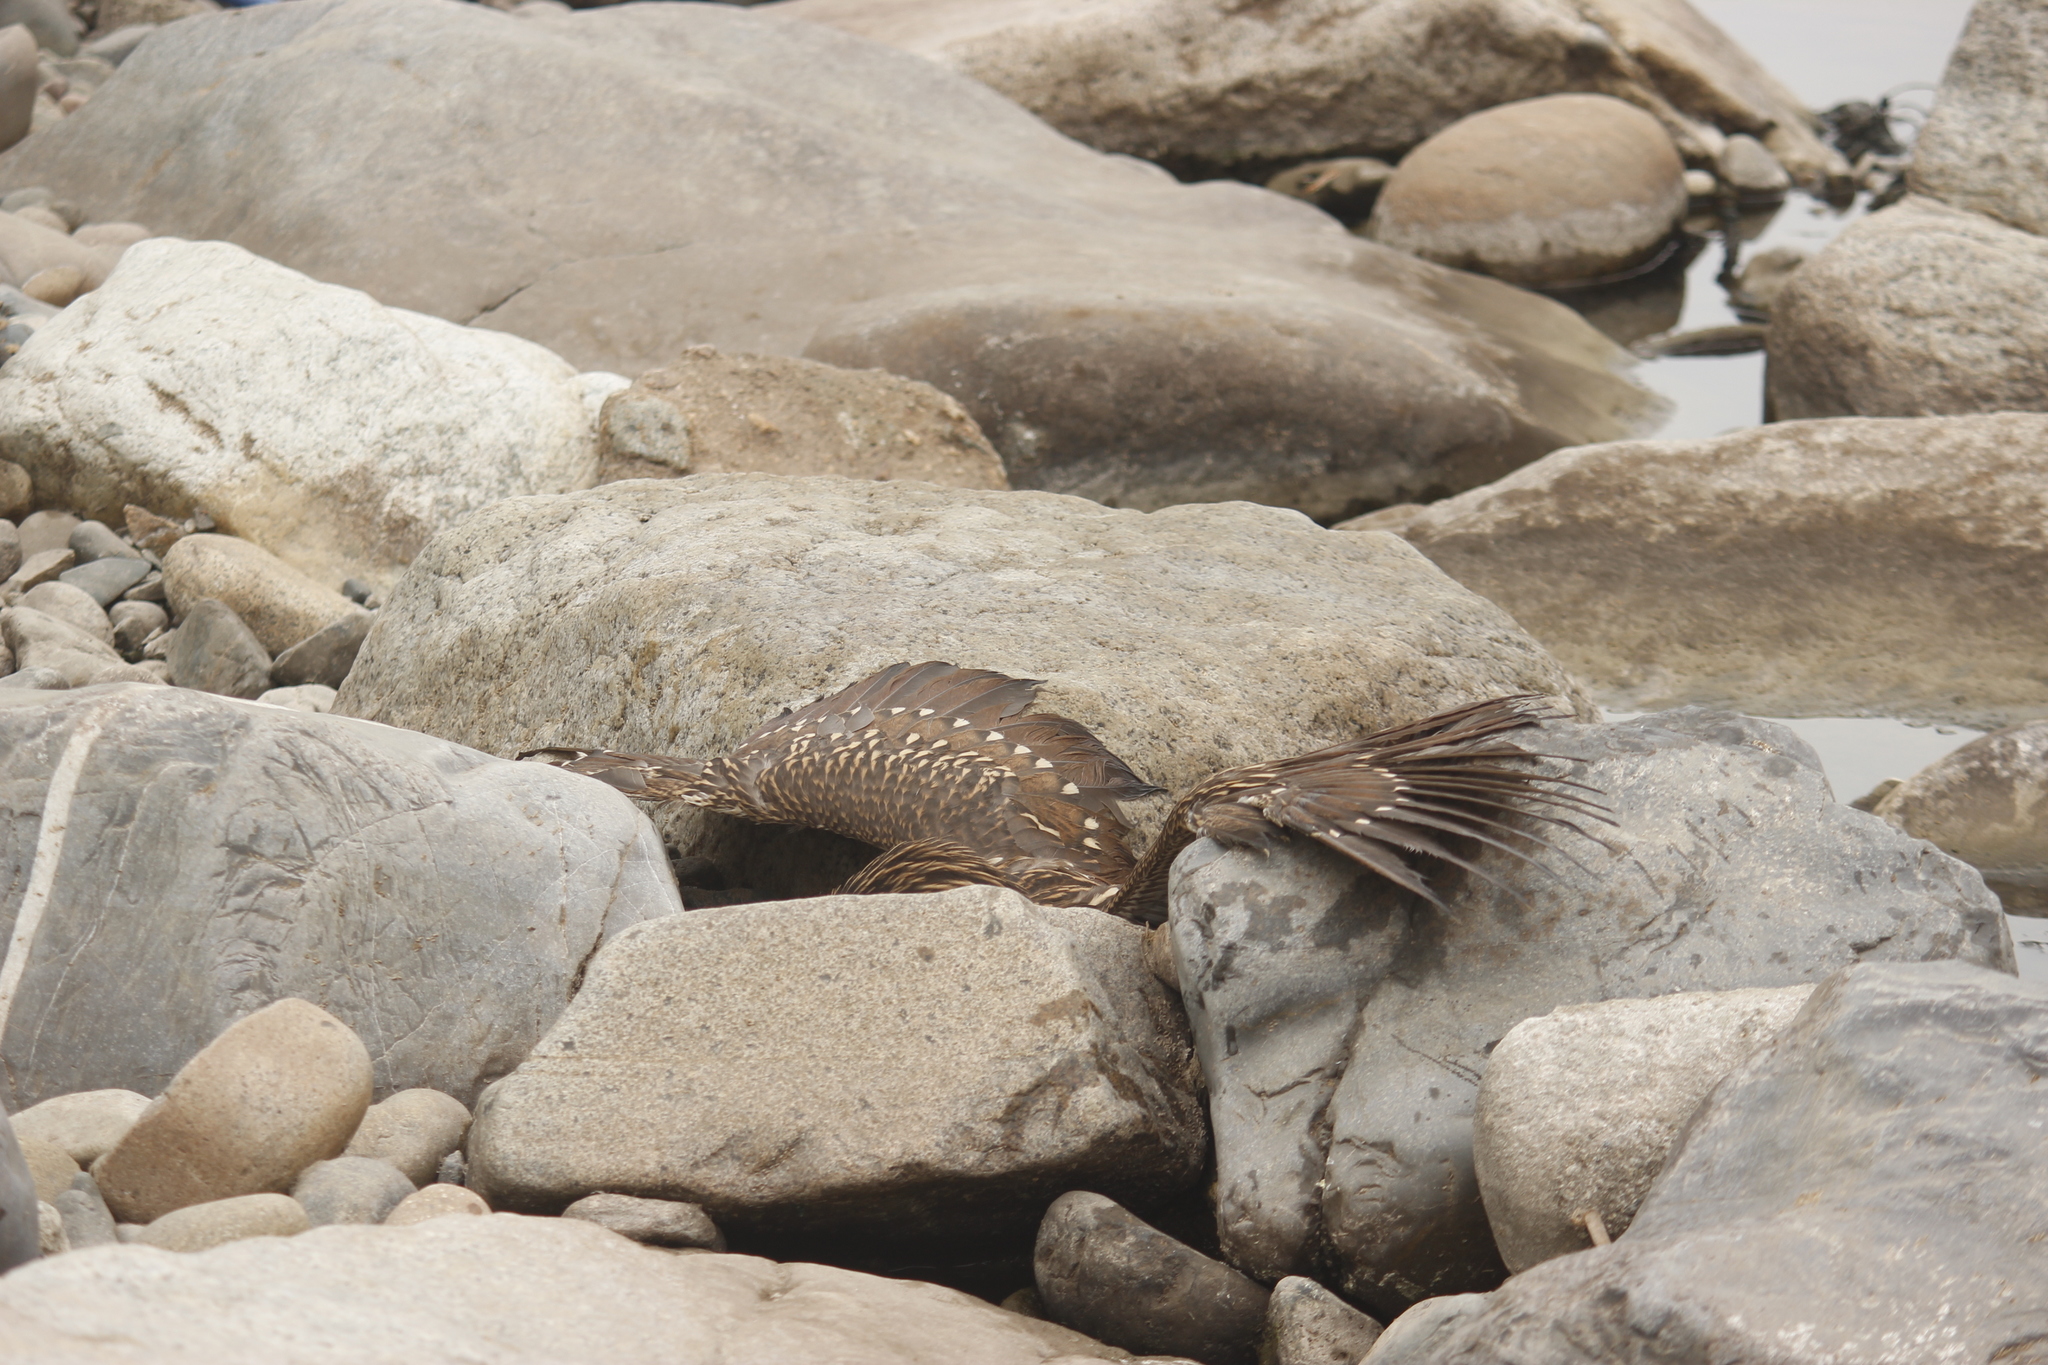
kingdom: Animalia
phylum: Chordata
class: Aves
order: Pelecaniformes
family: Ardeidae
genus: Nycticorax
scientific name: Nycticorax nycticorax
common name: Black-crowned night heron
